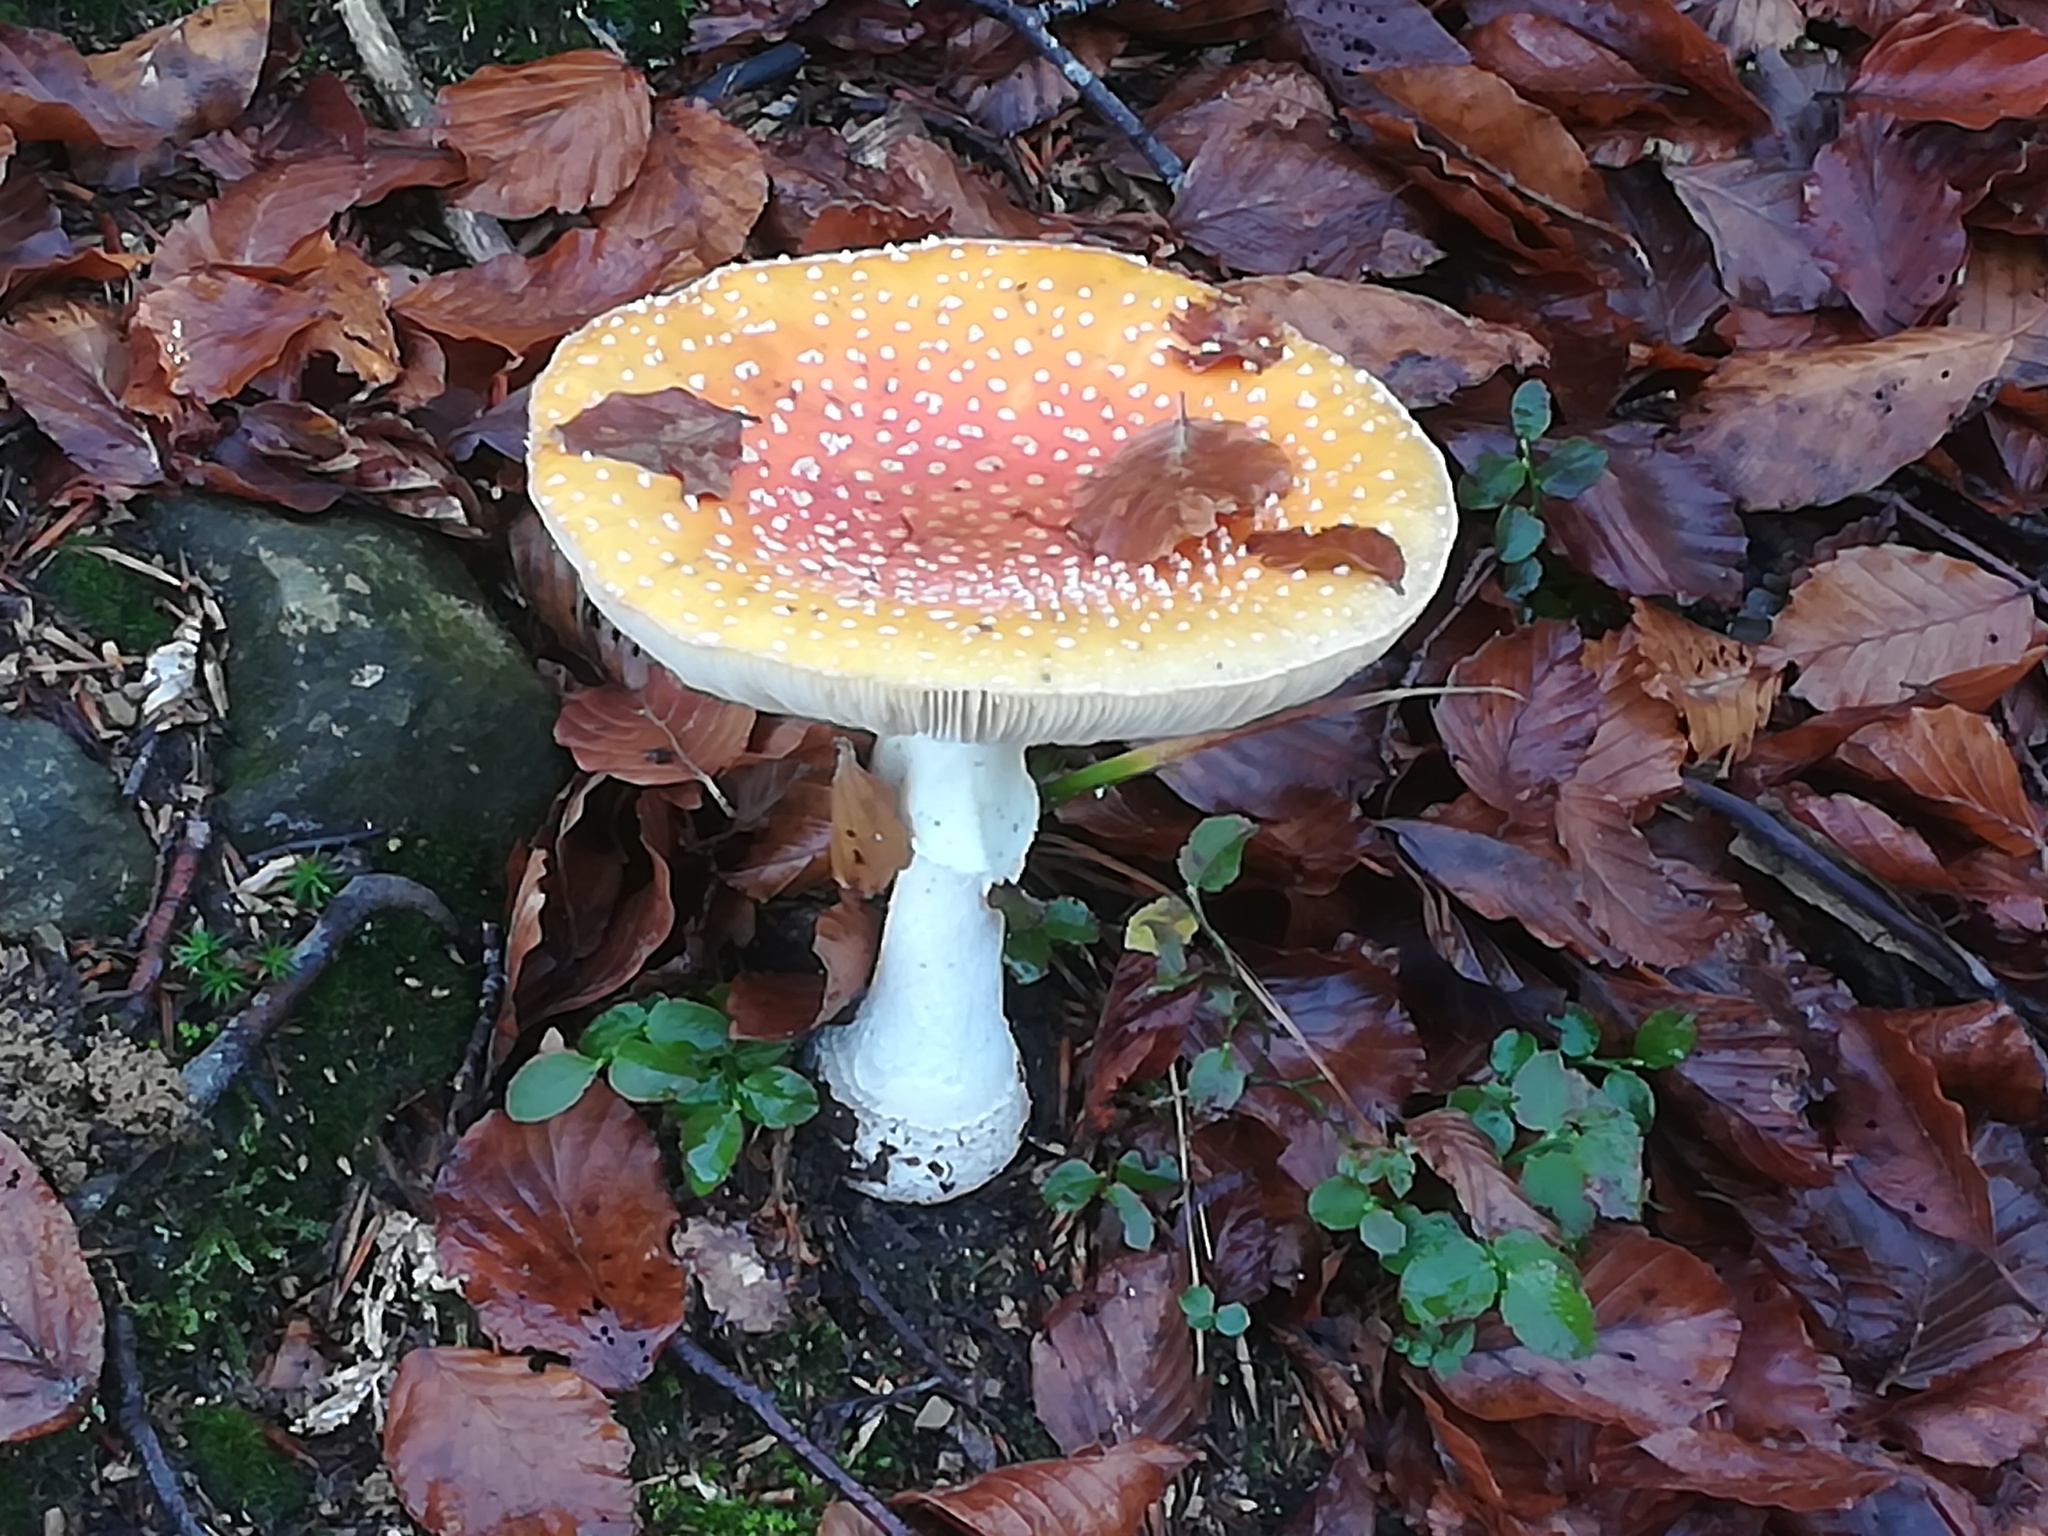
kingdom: Fungi
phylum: Basidiomycota
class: Agaricomycetes
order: Agaricales
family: Amanitaceae
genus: Amanita
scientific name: Amanita muscaria
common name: Fly agaric
